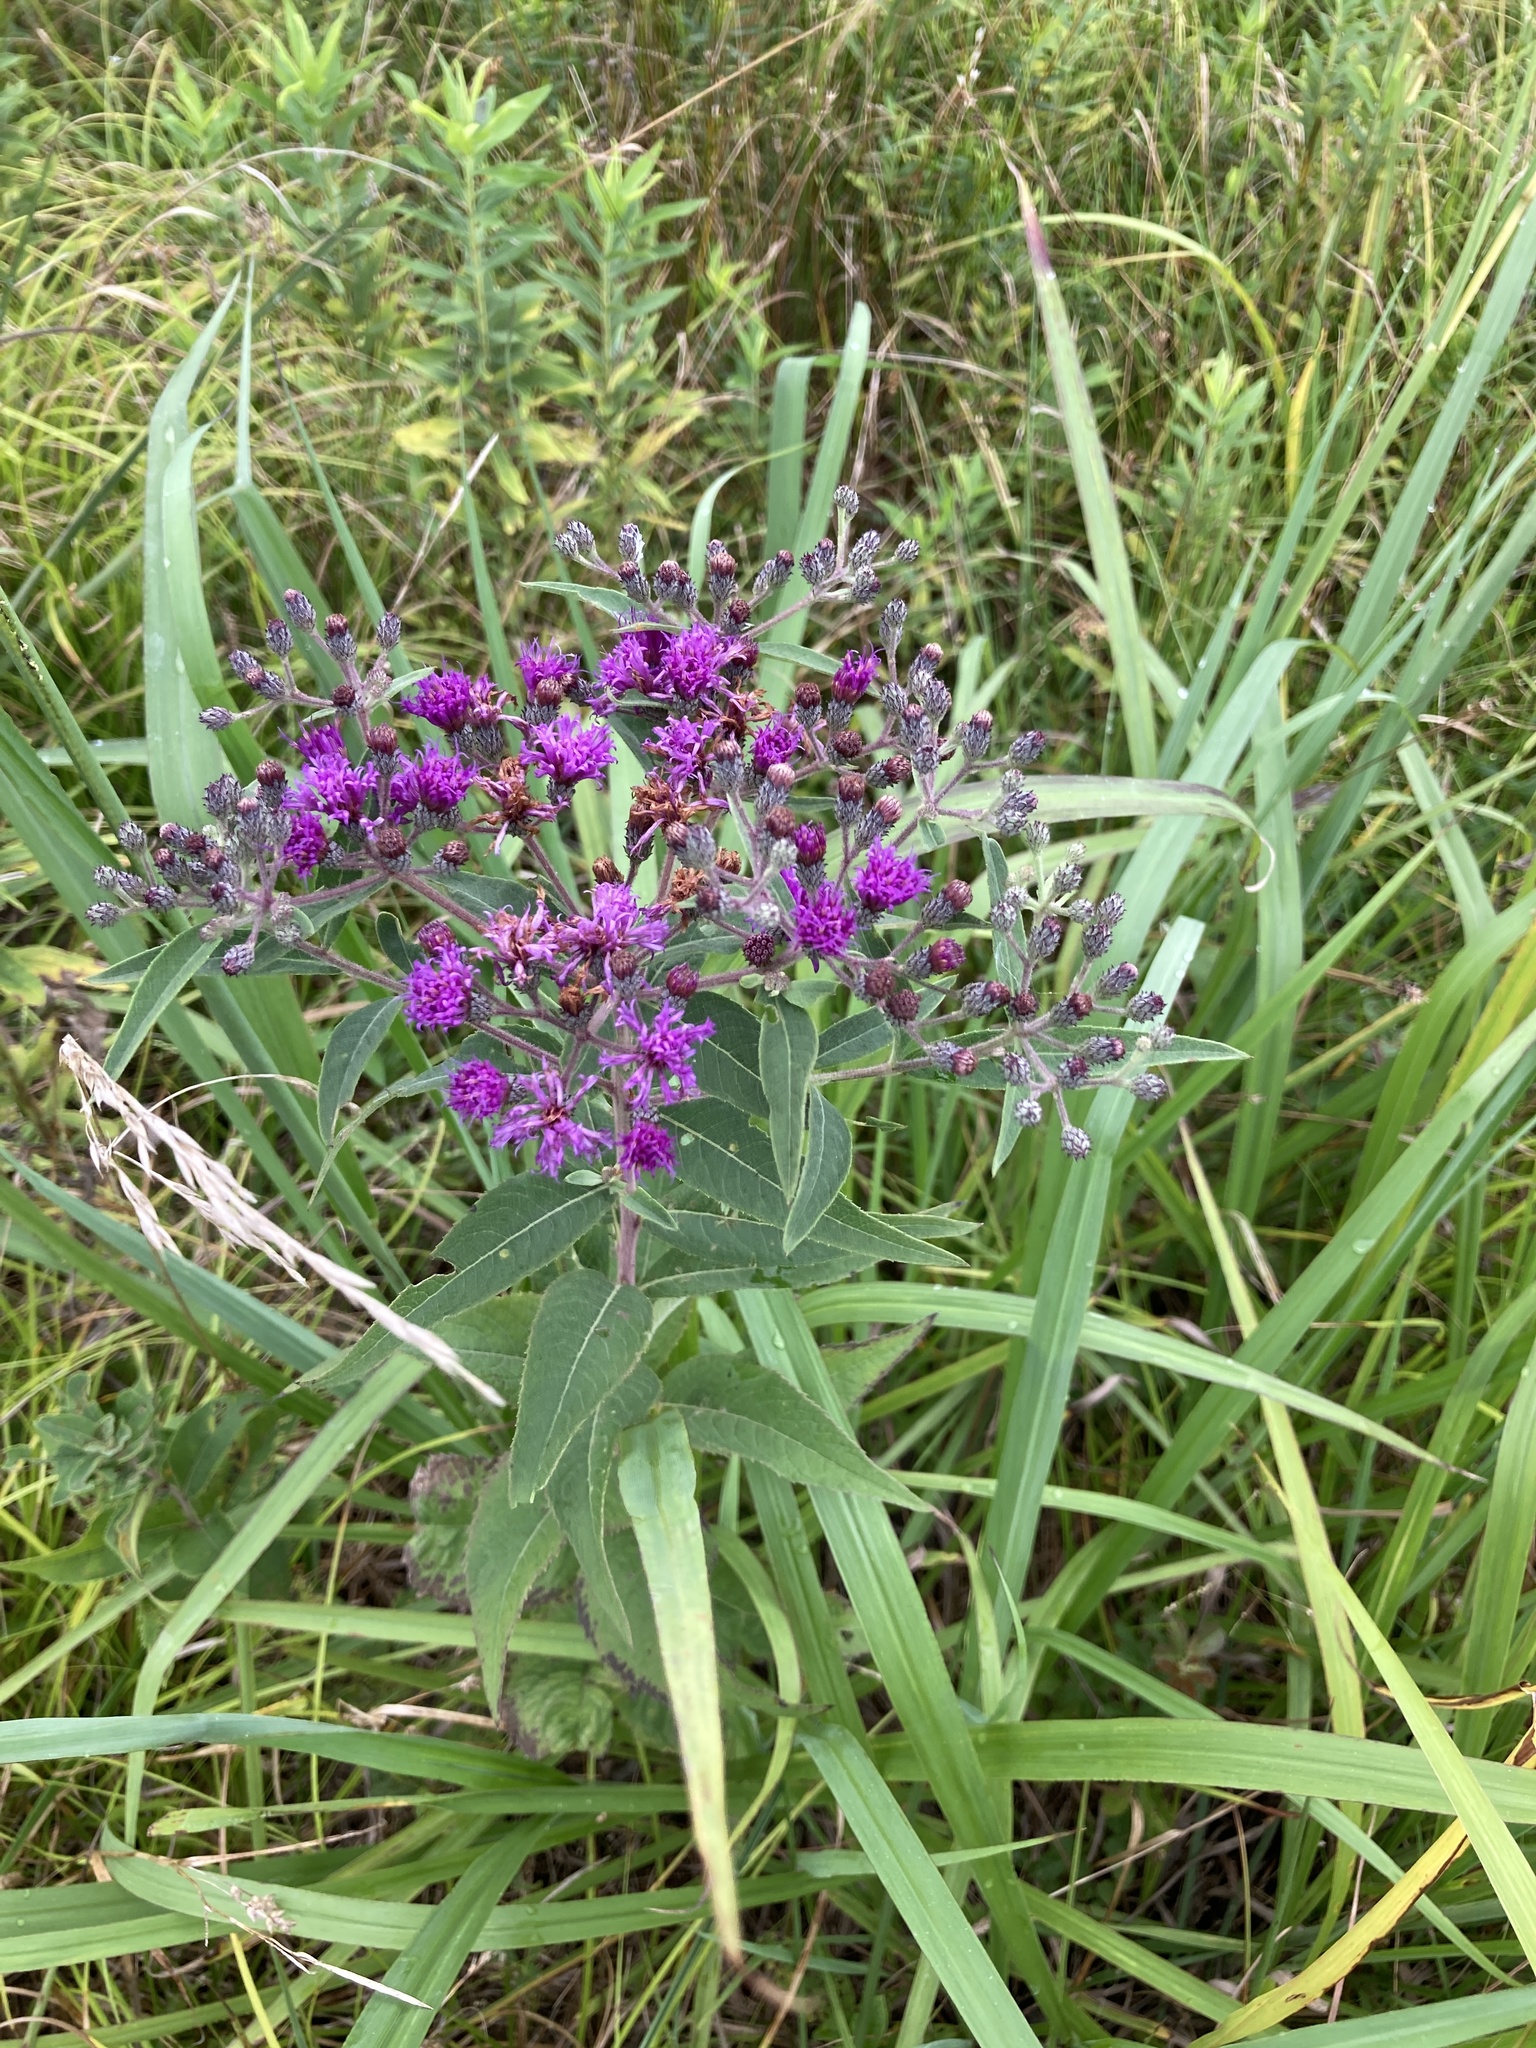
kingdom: Plantae
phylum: Tracheophyta
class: Magnoliopsida
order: Asterales
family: Asteraceae
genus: Vernonia
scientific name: Vernonia missurica
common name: Missouri ironweed
